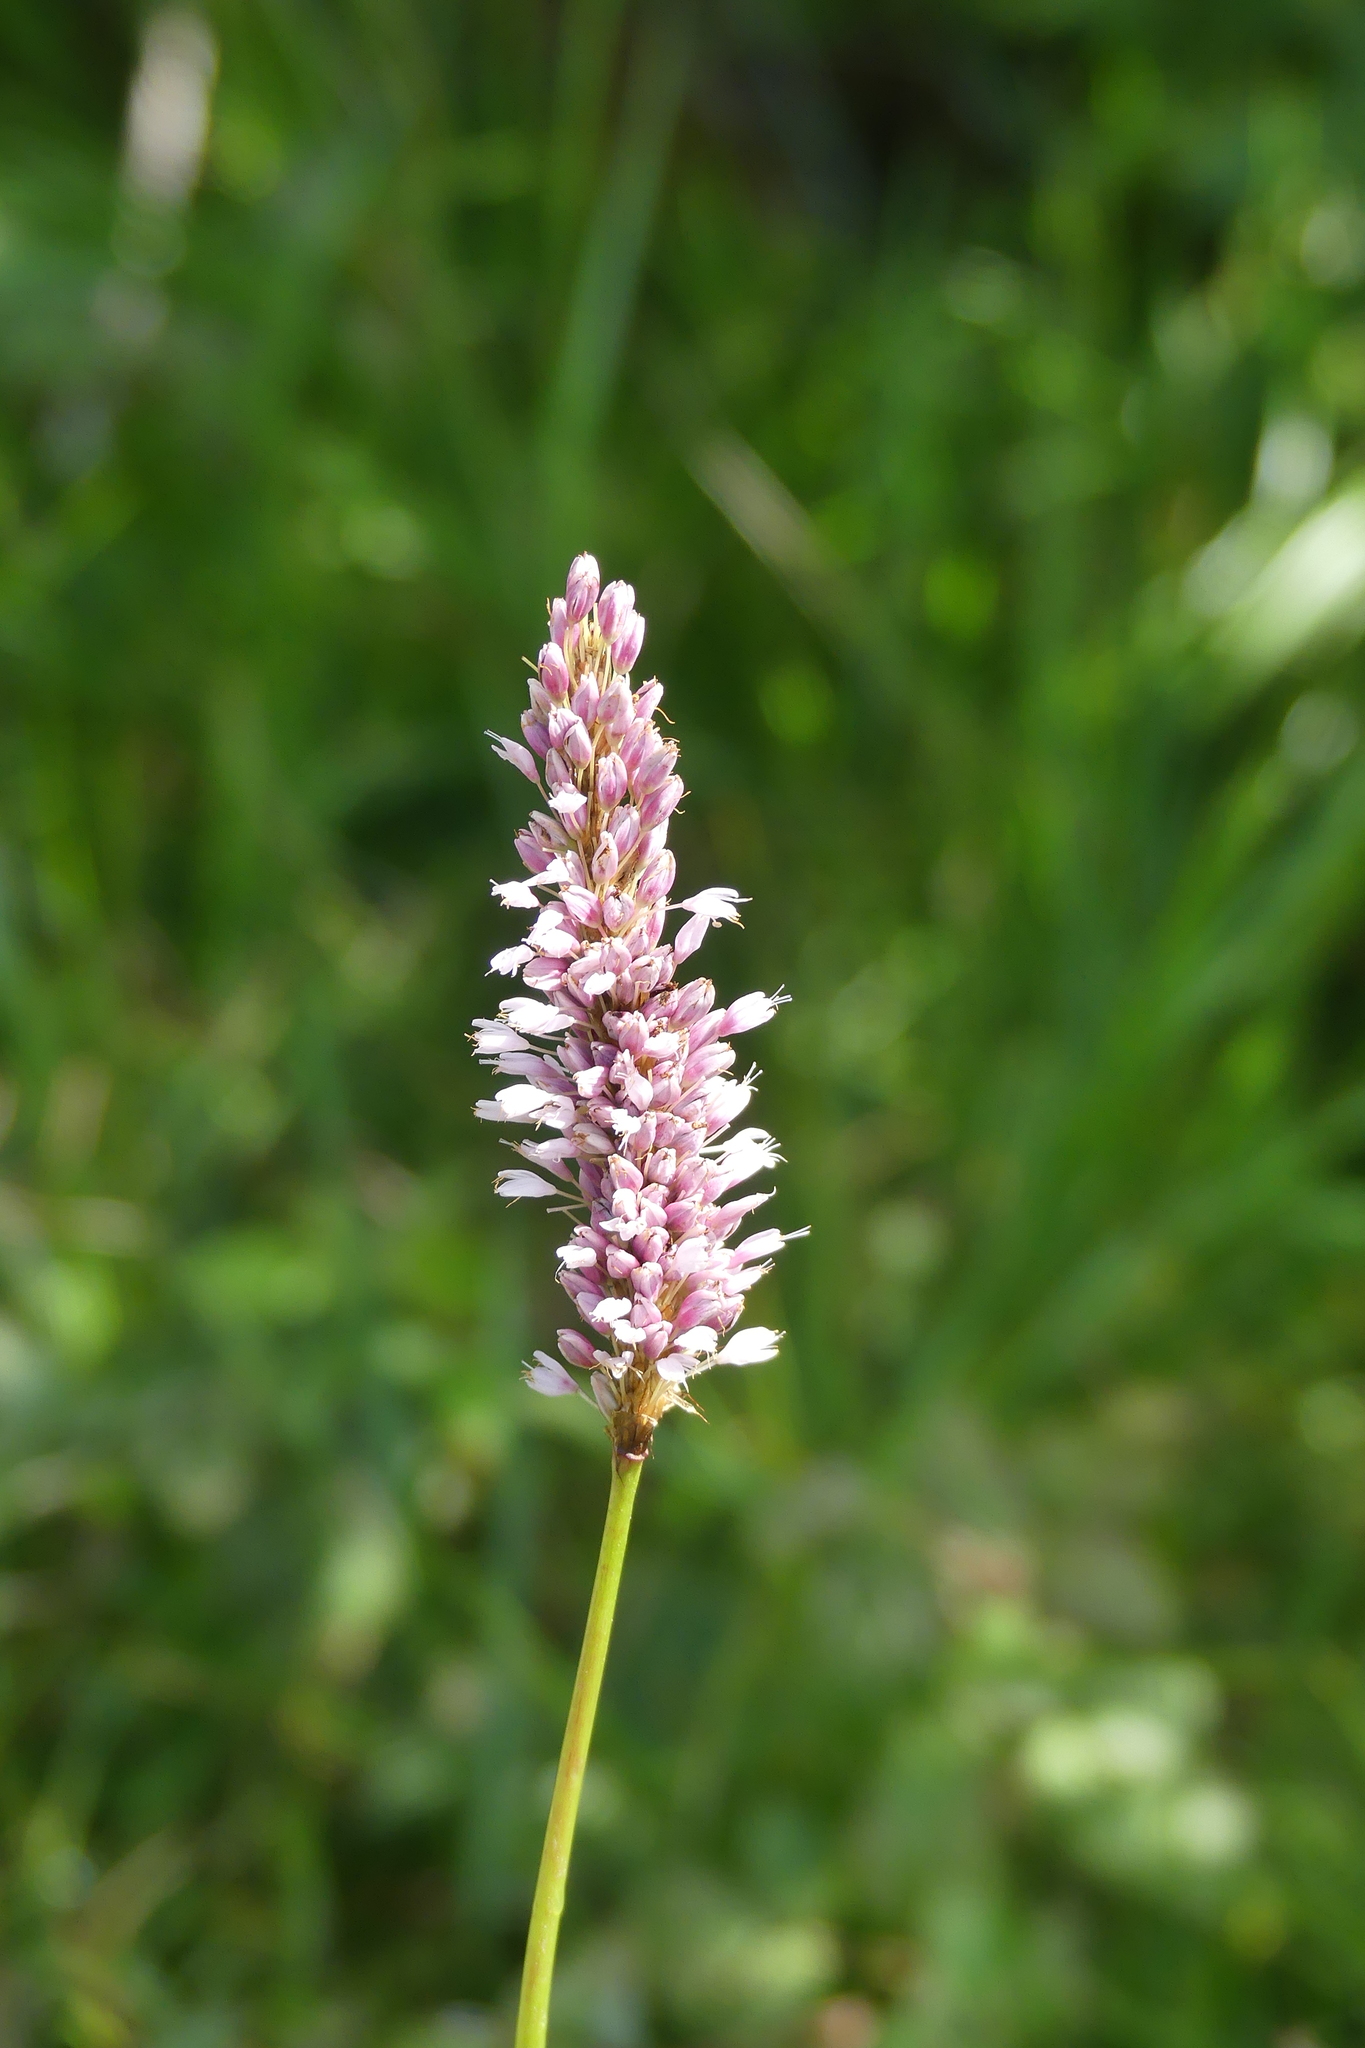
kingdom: Plantae
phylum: Tracheophyta
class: Magnoliopsida
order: Caryophyllales
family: Polygonaceae
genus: Bistorta
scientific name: Bistorta officinalis
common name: Common bistort
